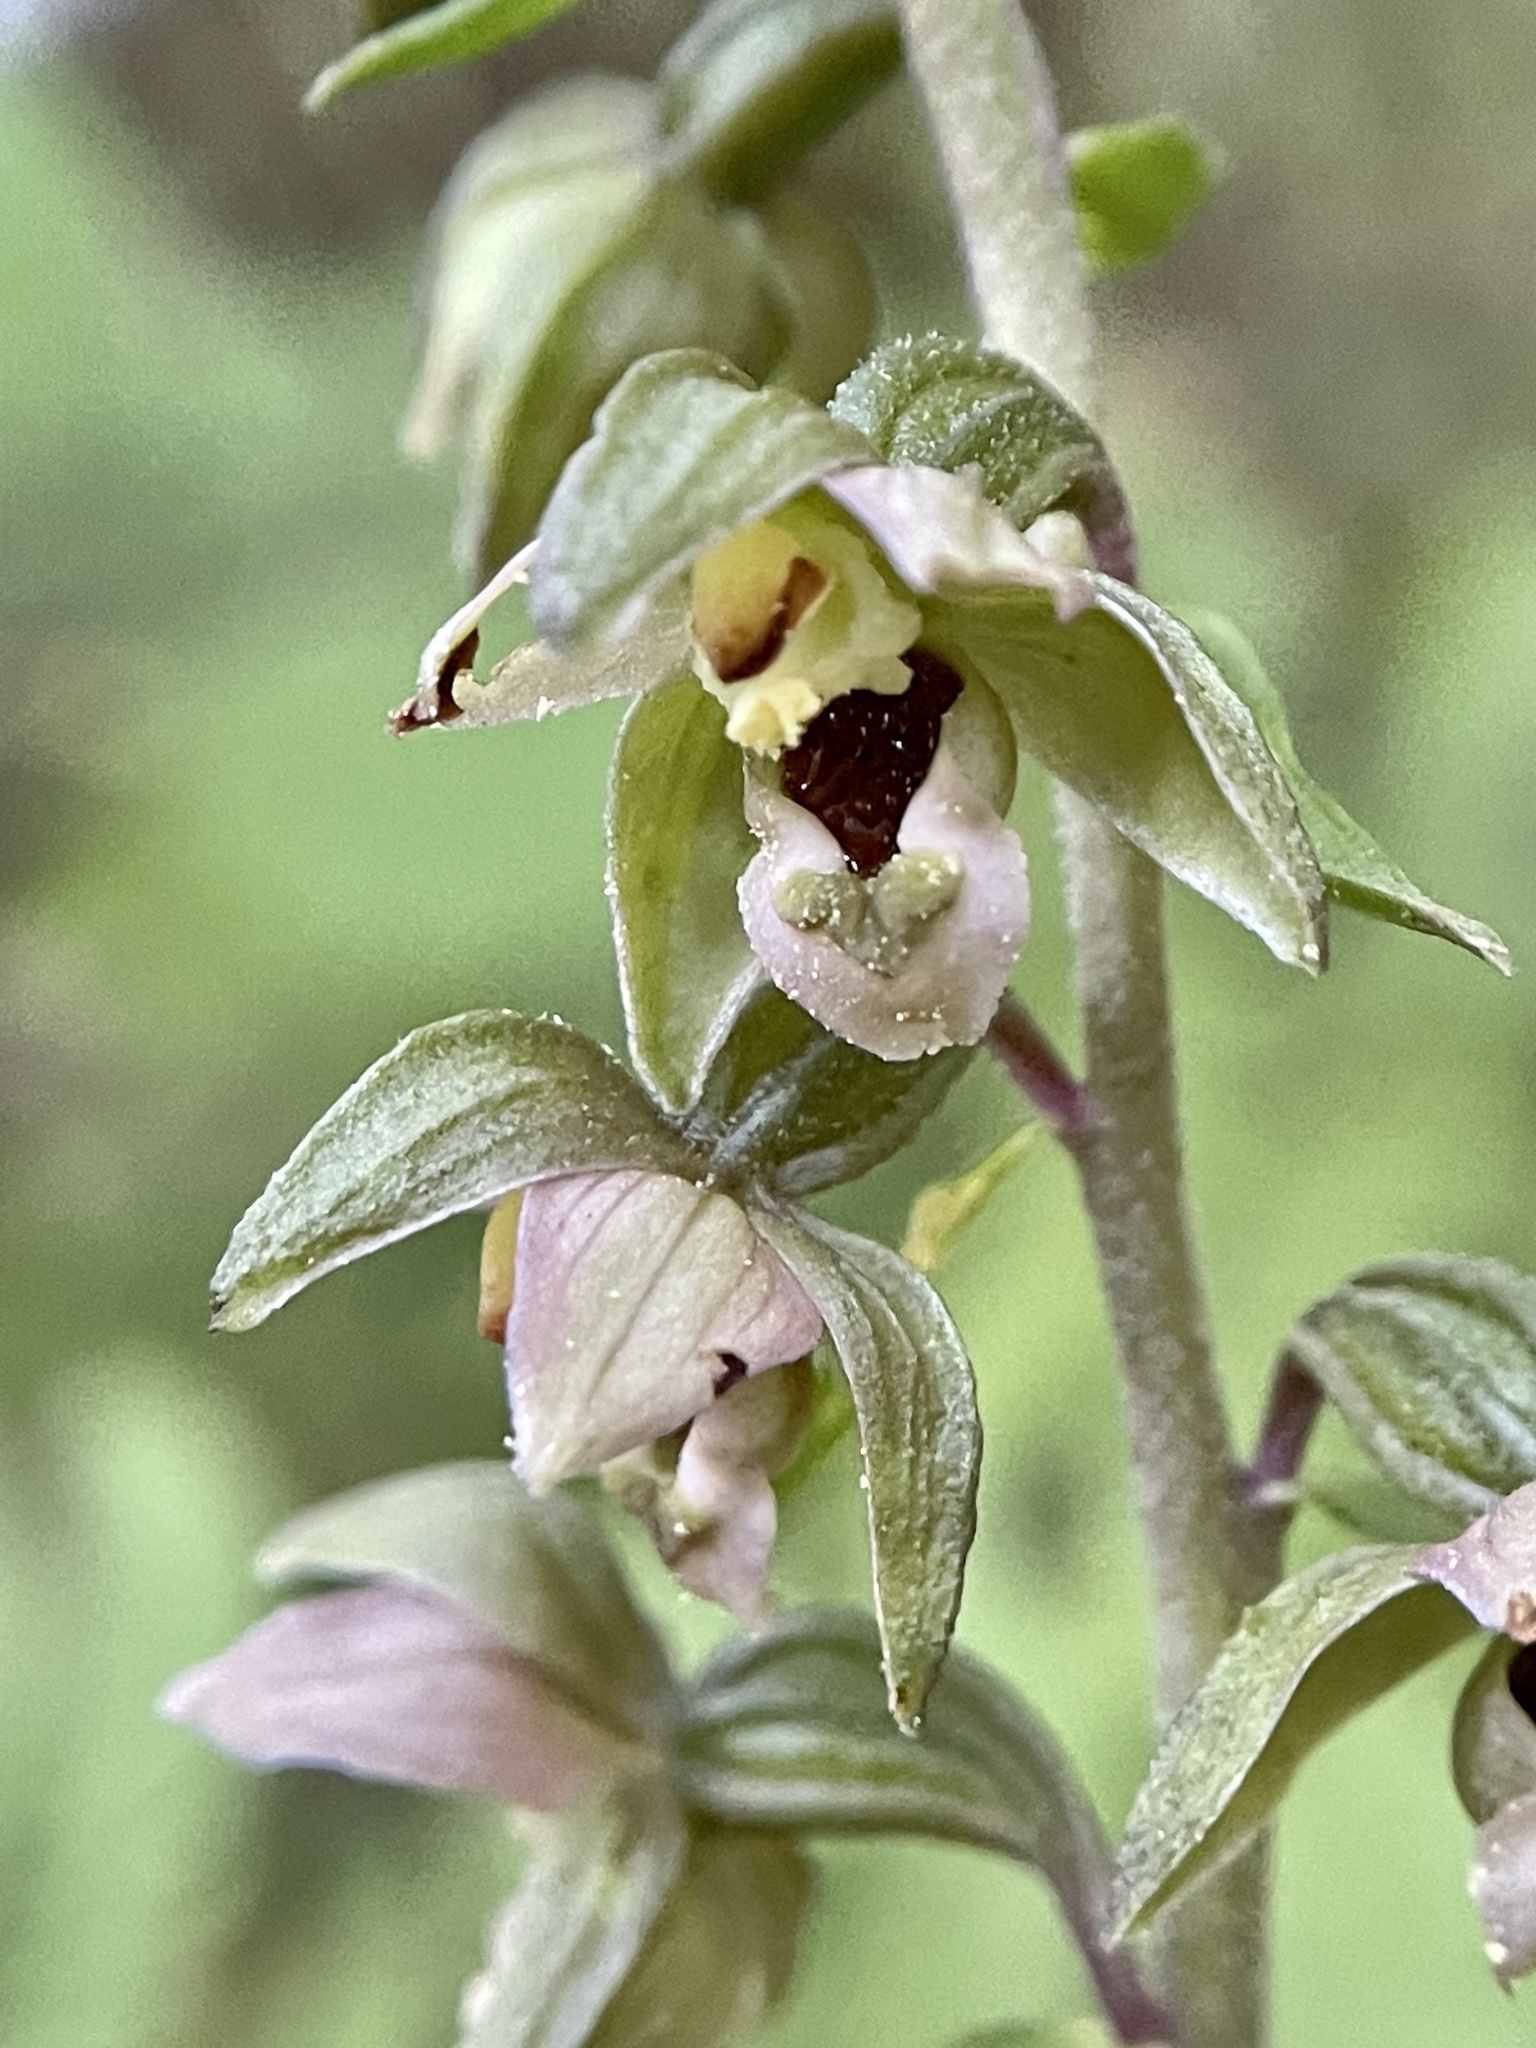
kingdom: Plantae
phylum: Tracheophyta
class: Liliopsida
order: Asparagales
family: Orchidaceae
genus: Epipactis
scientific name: Epipactis helleborine
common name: Broad-leaved helleborine
